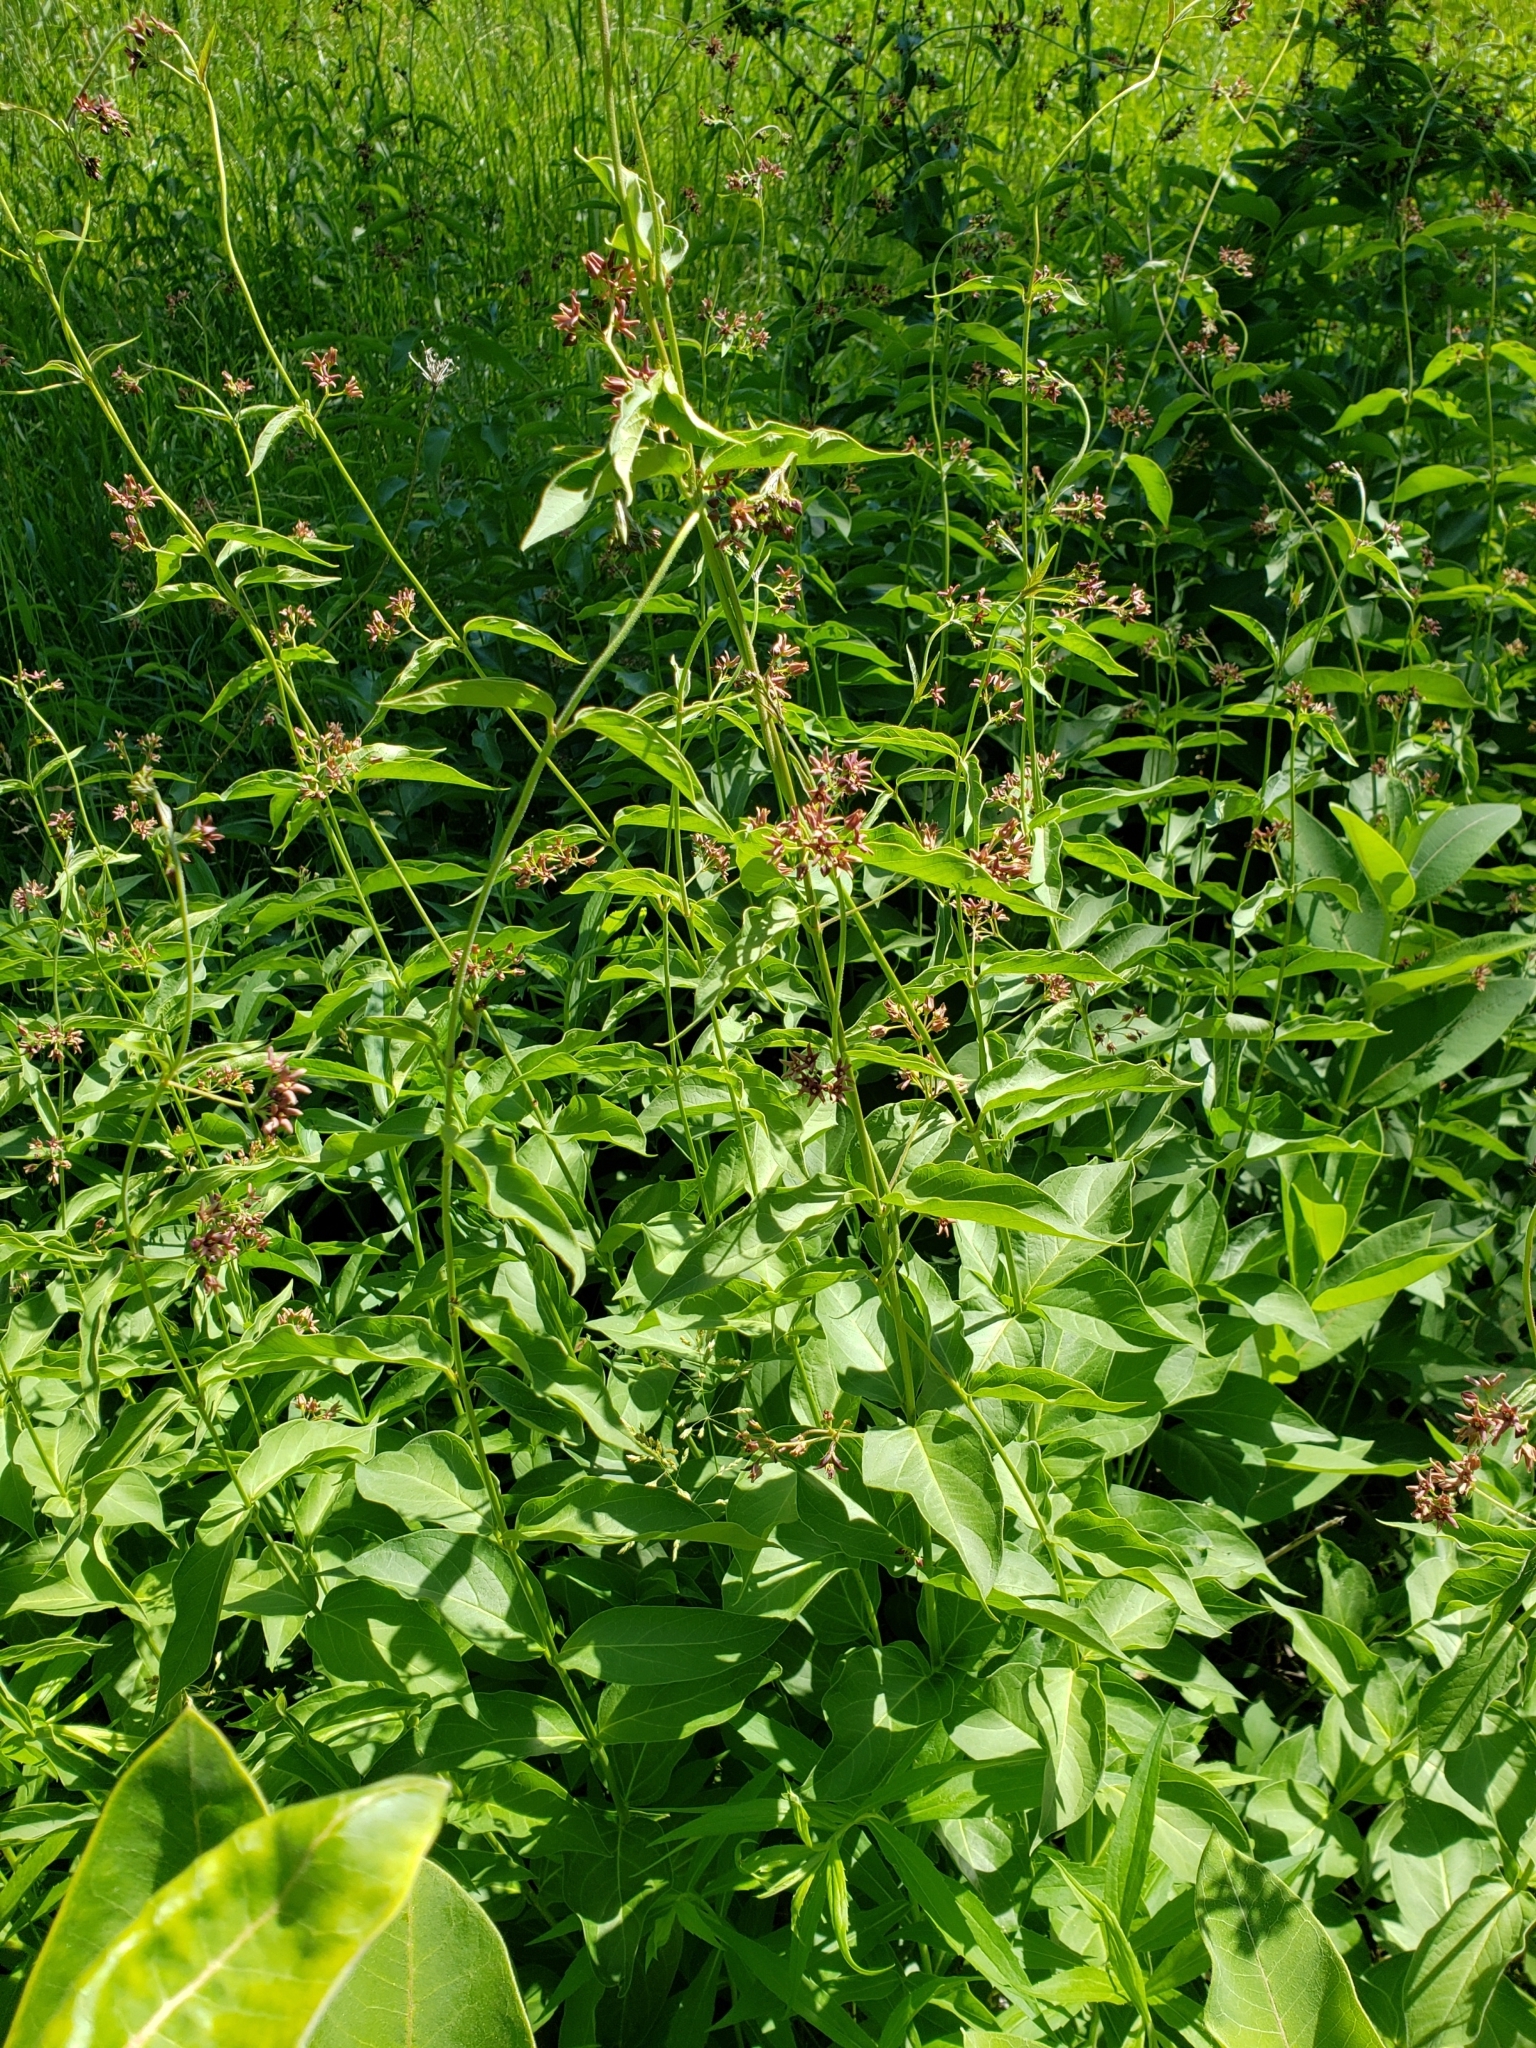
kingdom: Plantae
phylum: Tracheophyta
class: Magnoliopsida
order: Gentianales
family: Apocynaceae
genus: Vincetoxicum
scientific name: Vincetoxicum rossicum
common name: Dog-strangling vine
